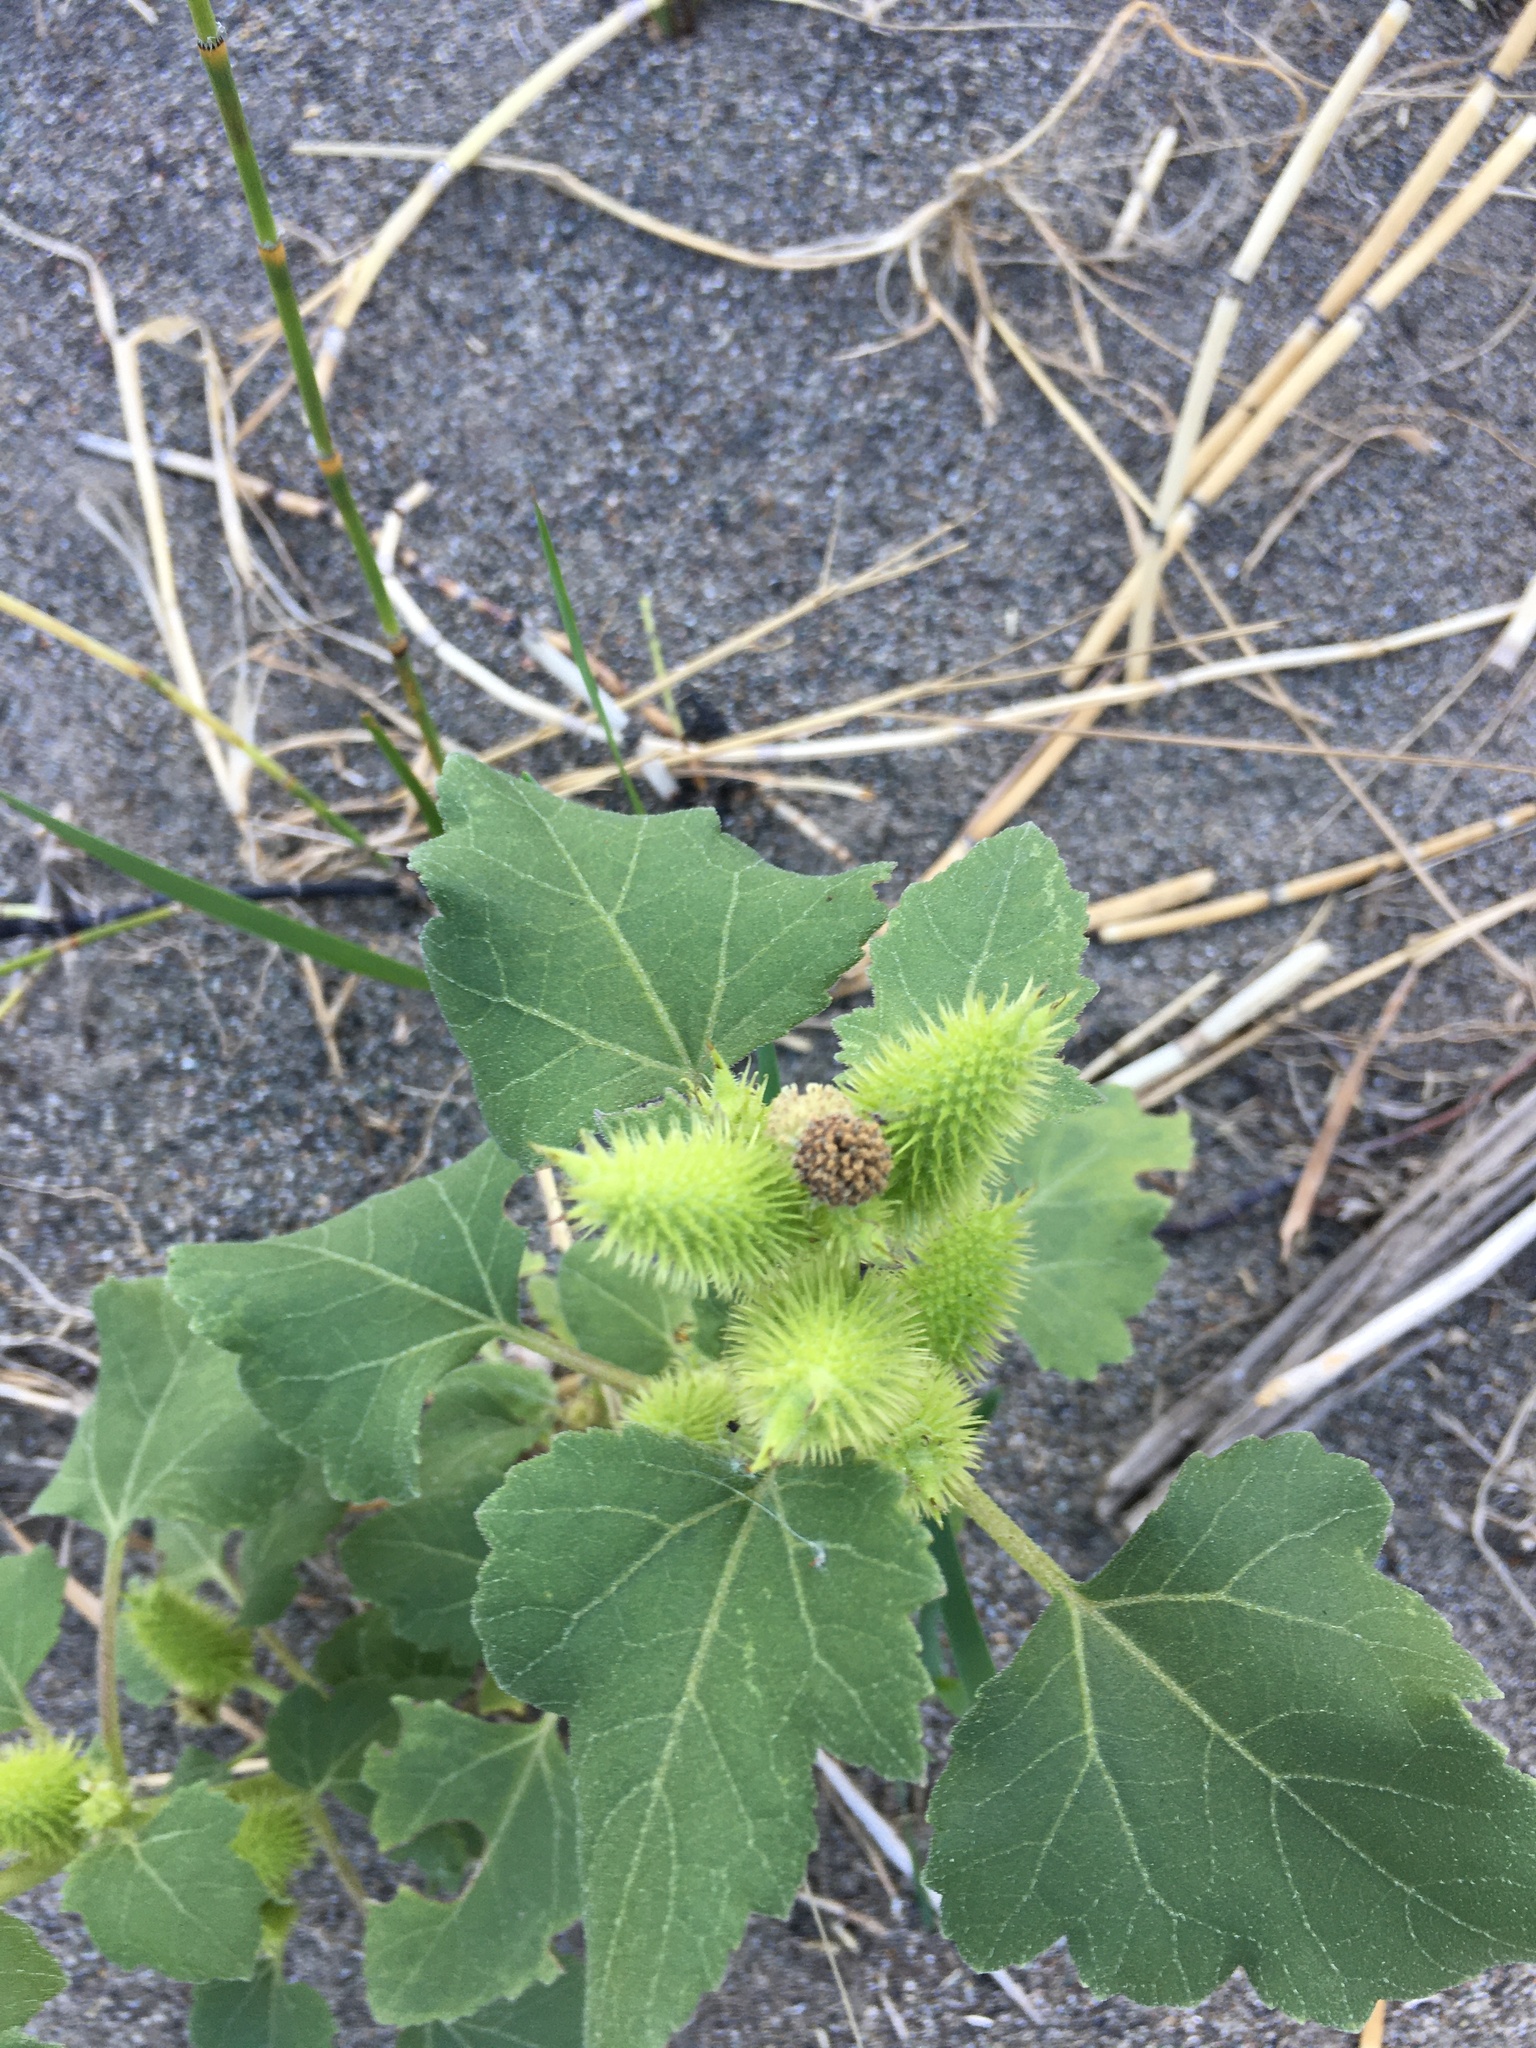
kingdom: Plantae
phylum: Tracheophyta
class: Magnoliopsida
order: Asterales
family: Asteraceae
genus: Xanthium
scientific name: Xanthium strumarium
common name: Rough cocklebur
